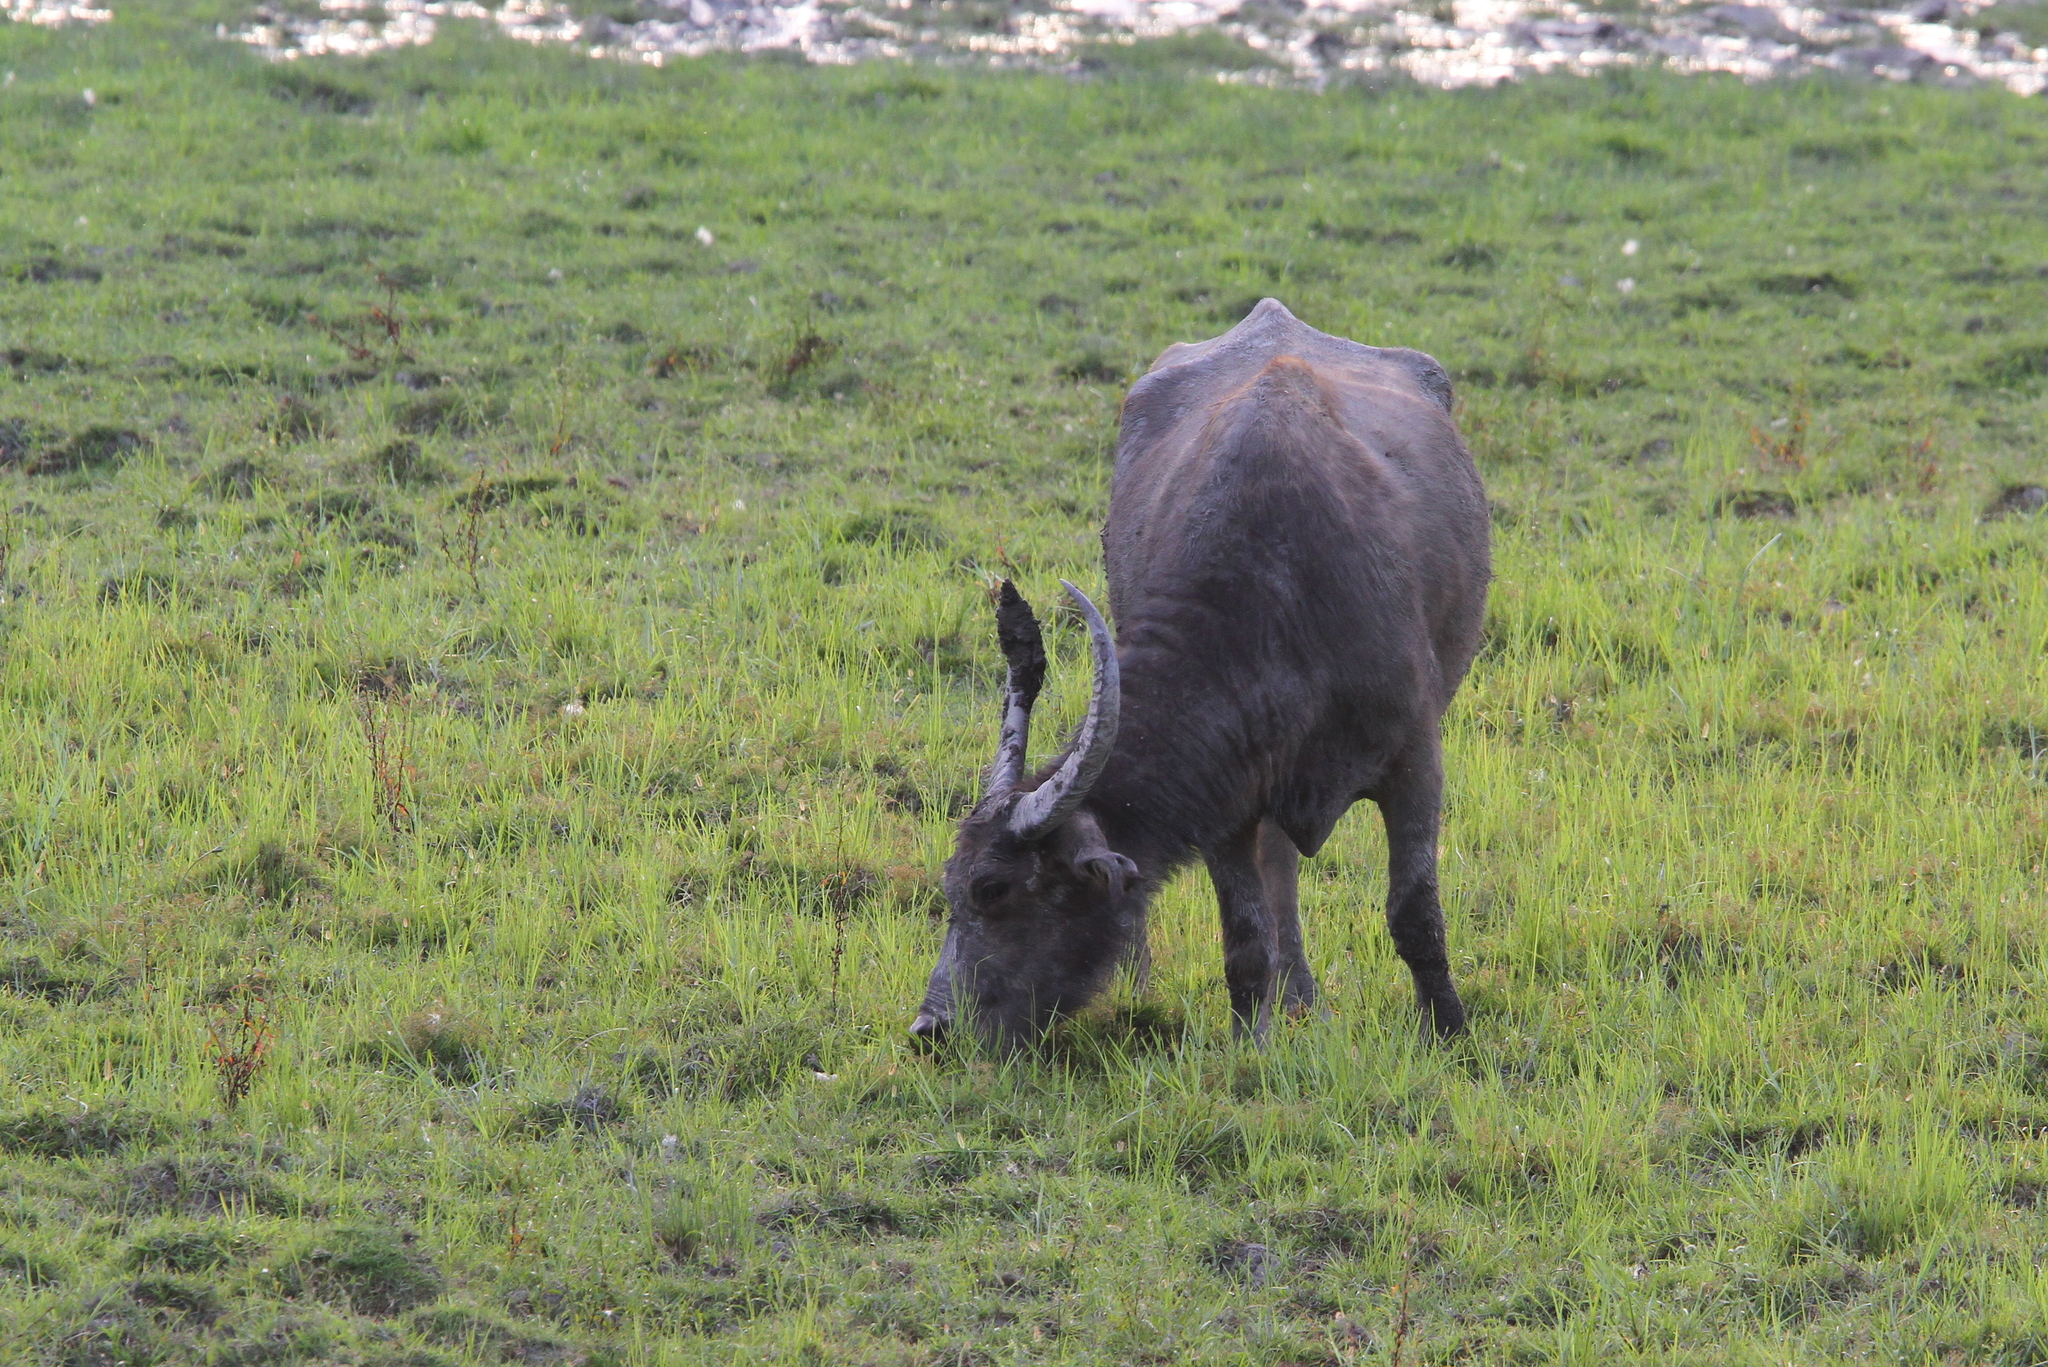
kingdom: Animalia
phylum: Chordata
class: Mammalia
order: Artiodactyla
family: Bovidae
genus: Bubalus
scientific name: Bubalus bubalis
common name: Water buffalo
